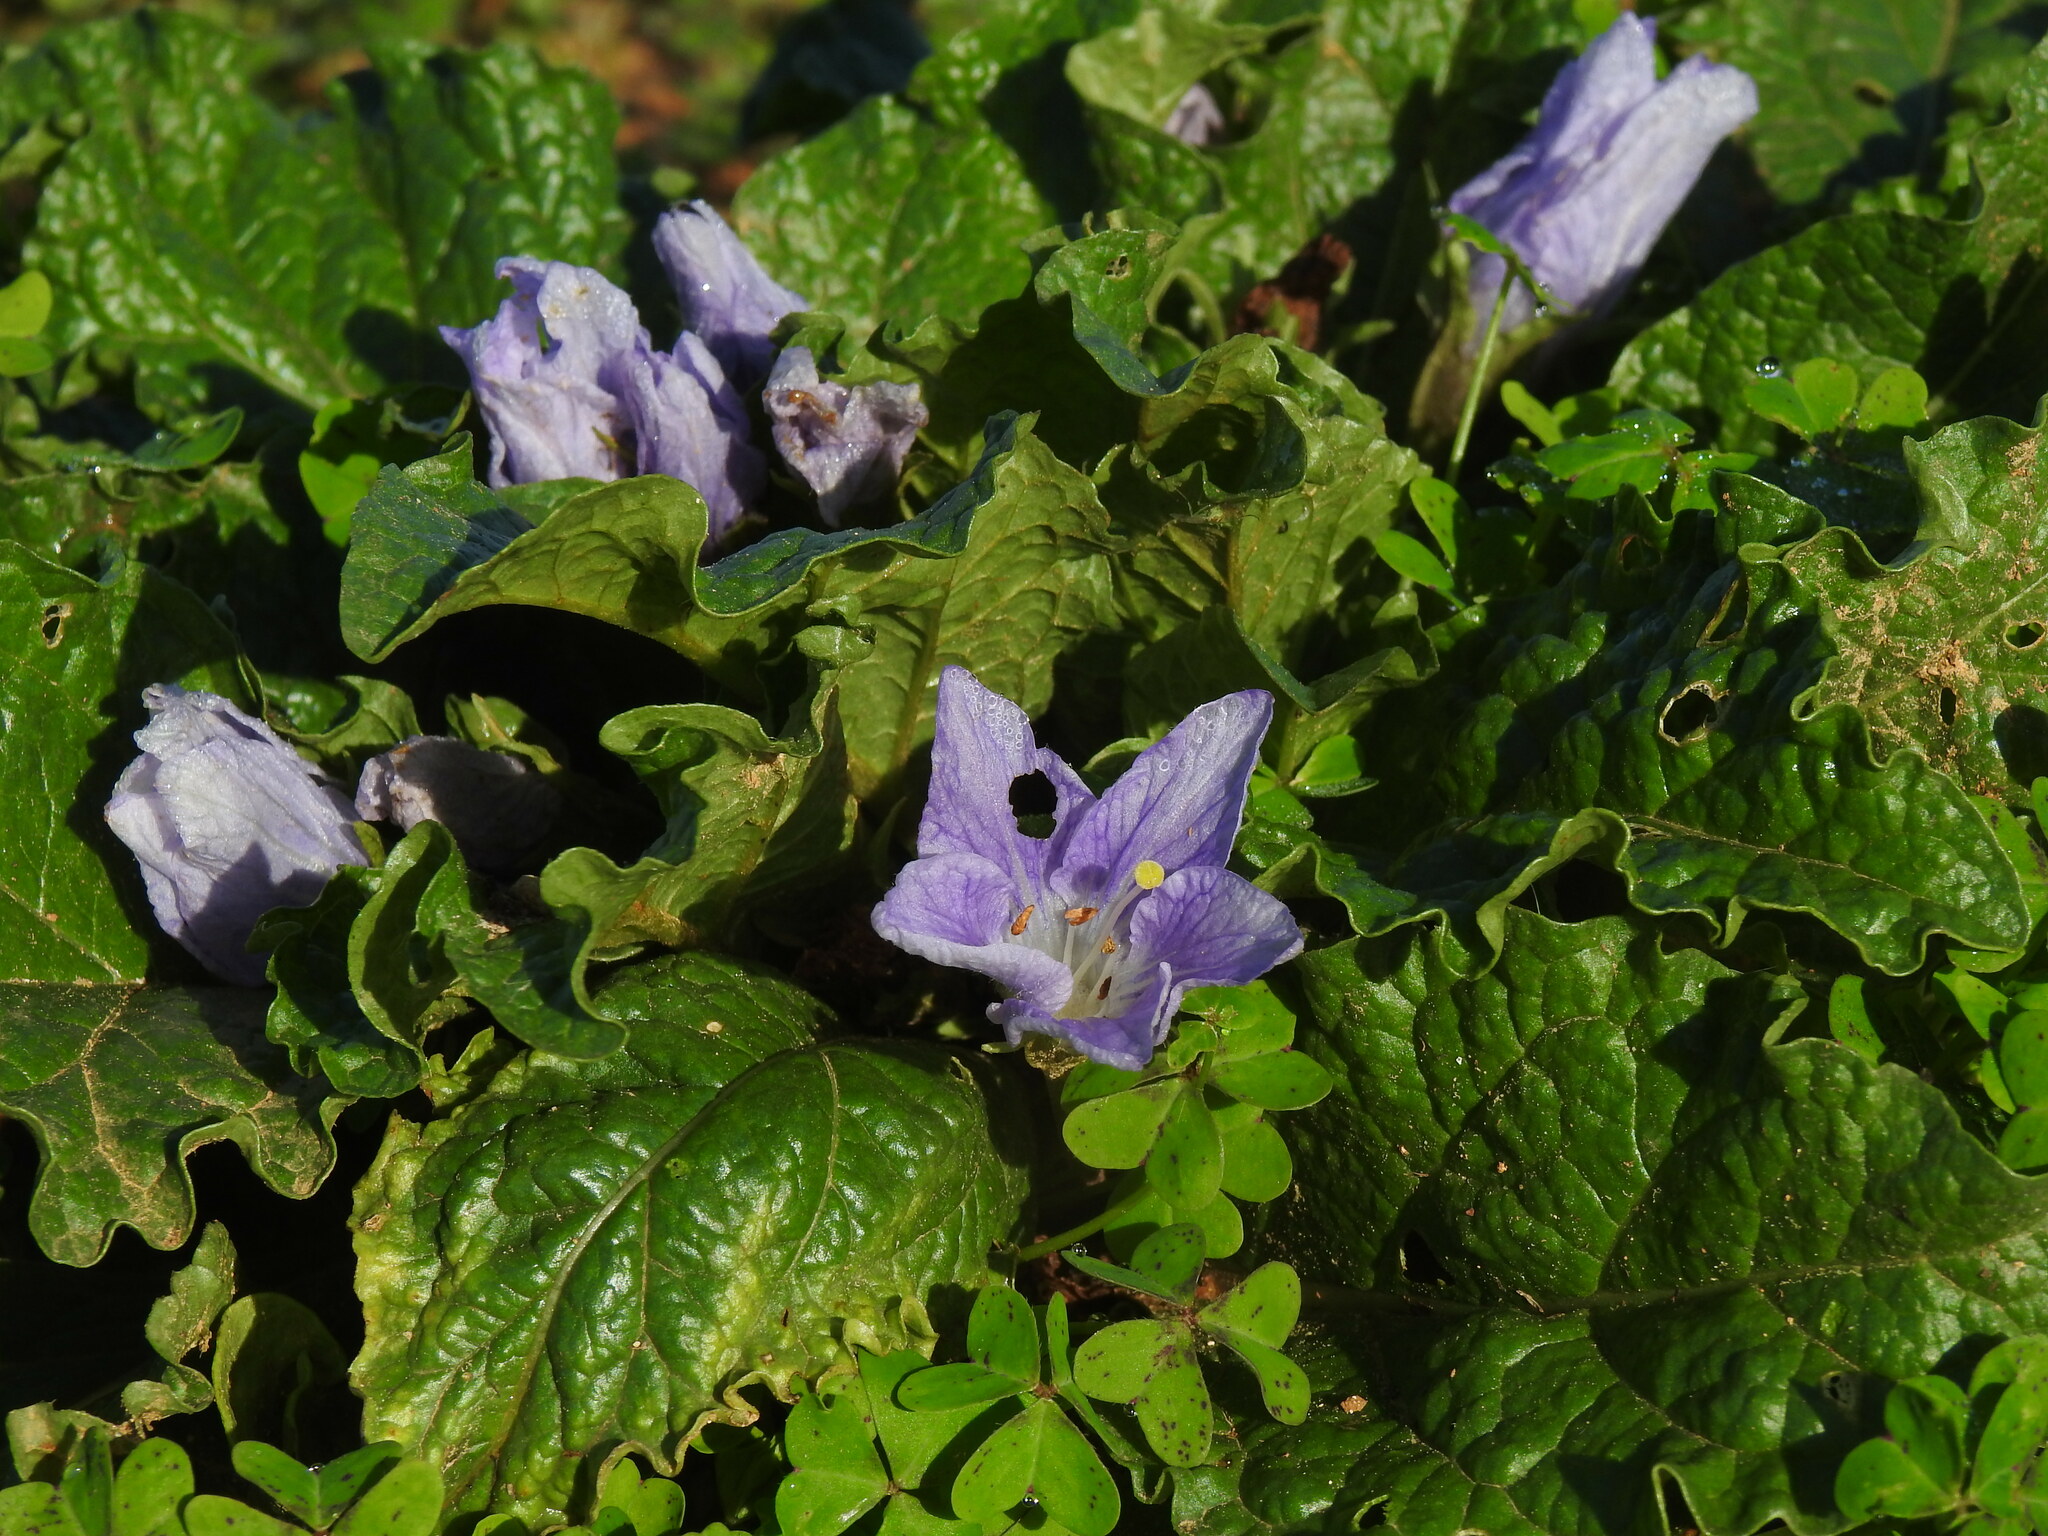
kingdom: Plantae
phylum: Tracheophyta
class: Magnoliopsida
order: Solanales
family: Solanaceae
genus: Mandragora
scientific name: Mandragora officinarum
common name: Mandrake
